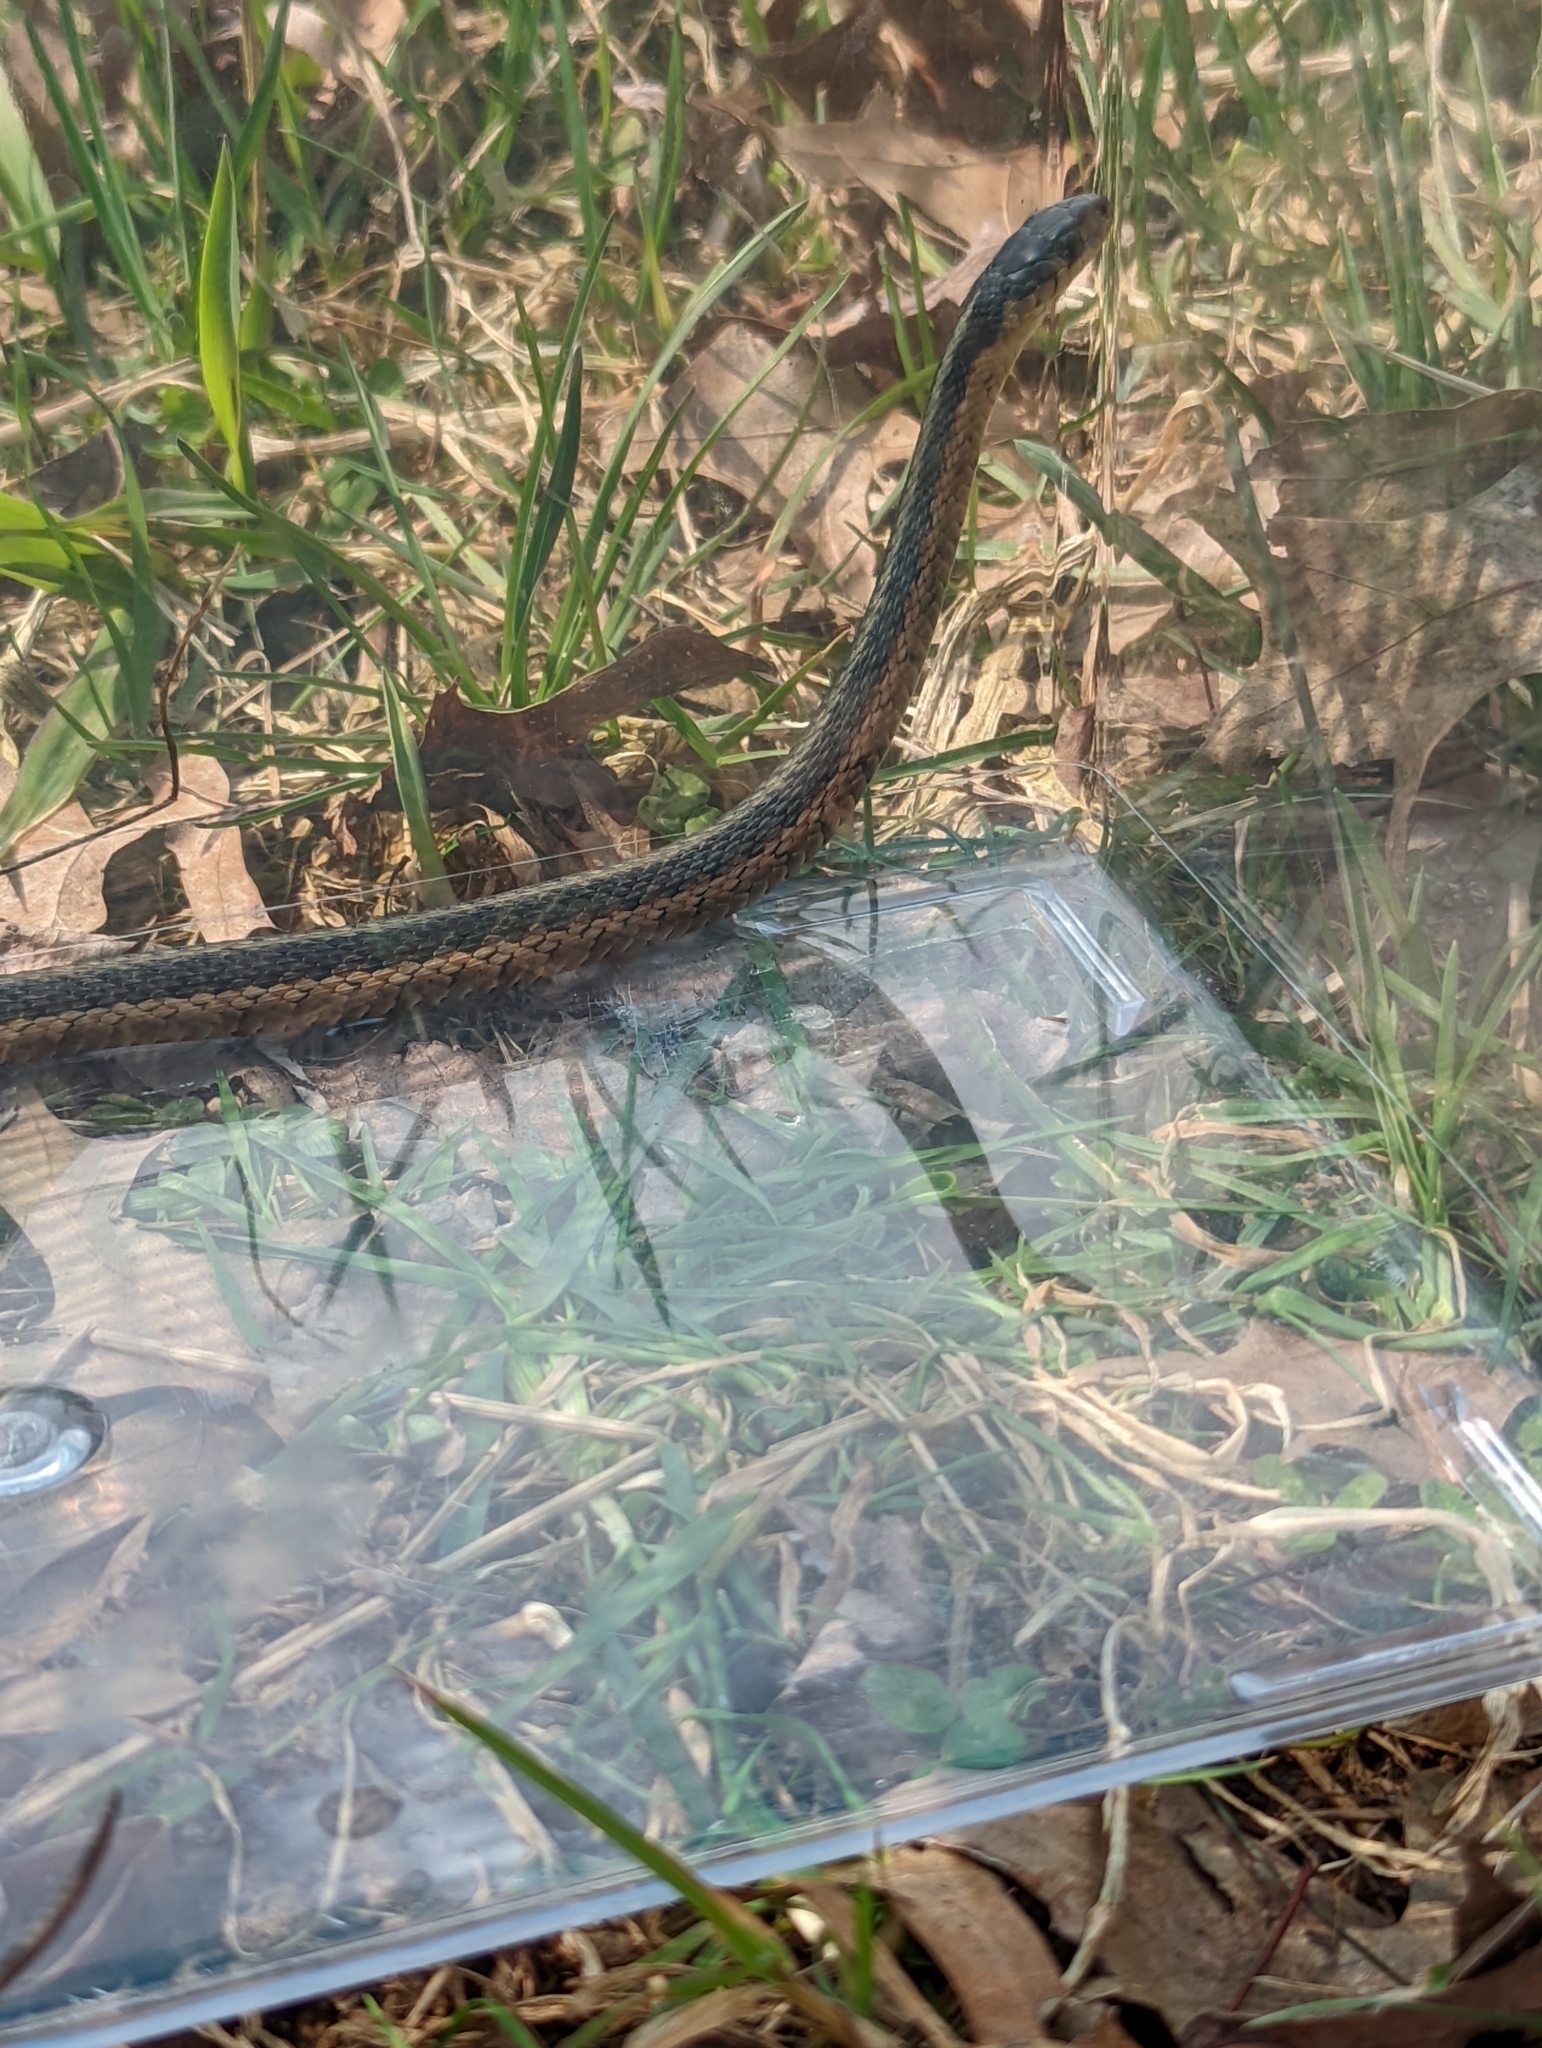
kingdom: Animalia
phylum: Chordata
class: Squamata
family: Colubridae
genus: Thamnophis
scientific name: Thamnophis sirtalis
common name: Common garter snake
